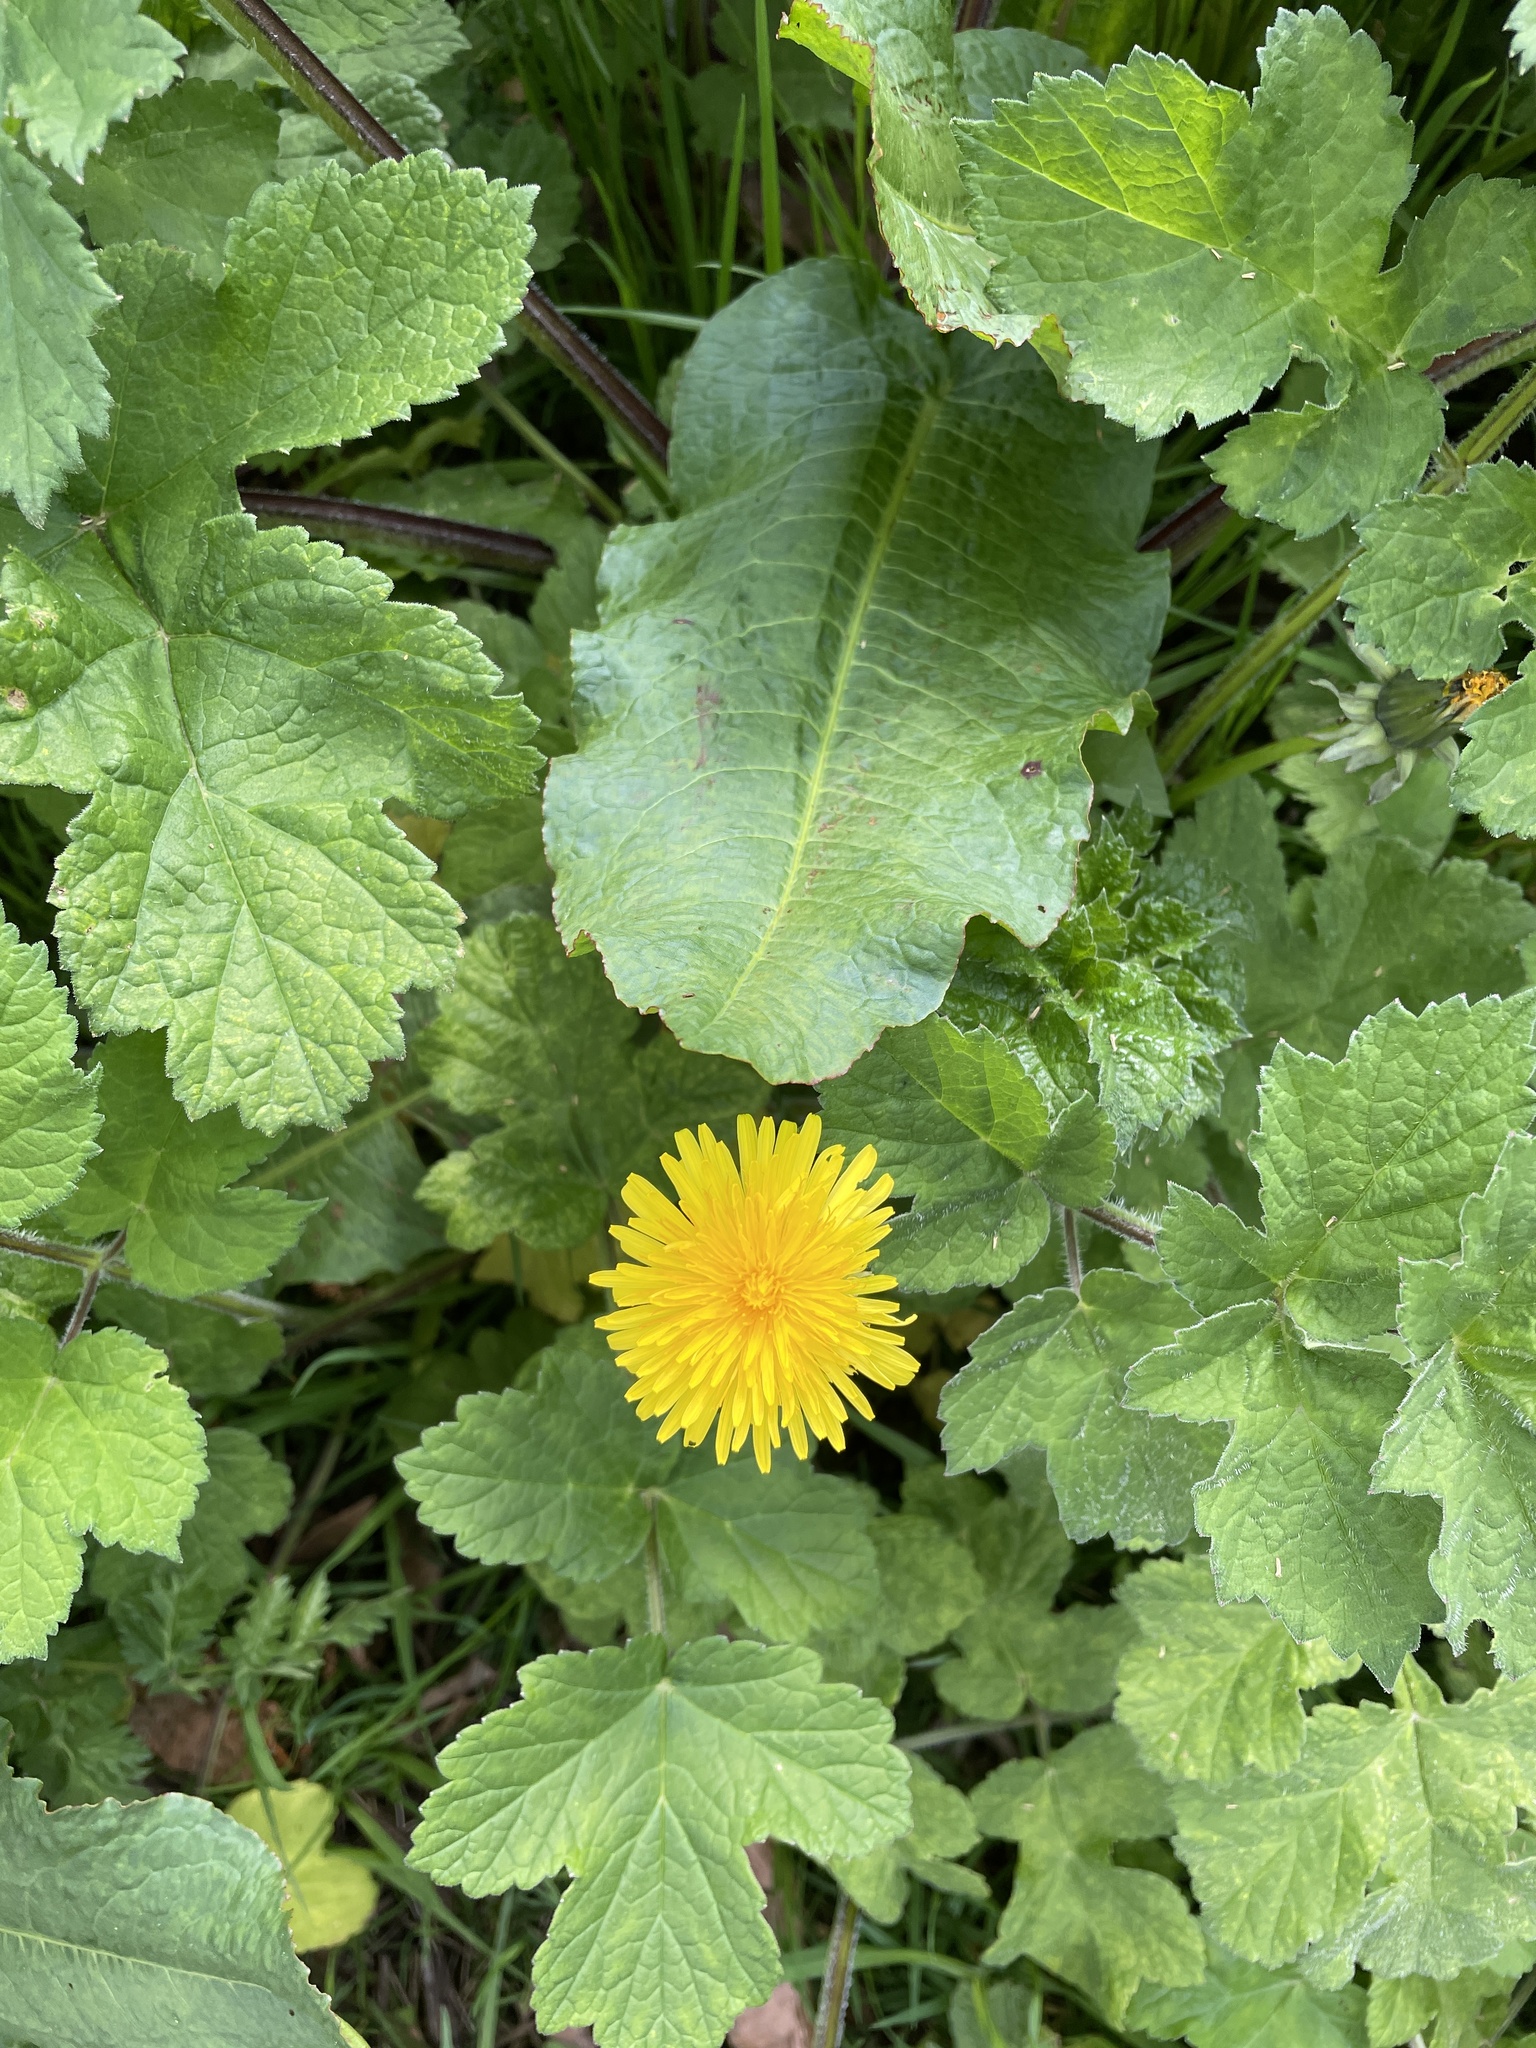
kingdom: Plantae
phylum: Tracheophyta
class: Magnoliopsida
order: Asterales
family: Asteraceae
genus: Taraxacum
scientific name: Taraxacum officinale
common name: Common dandelion
